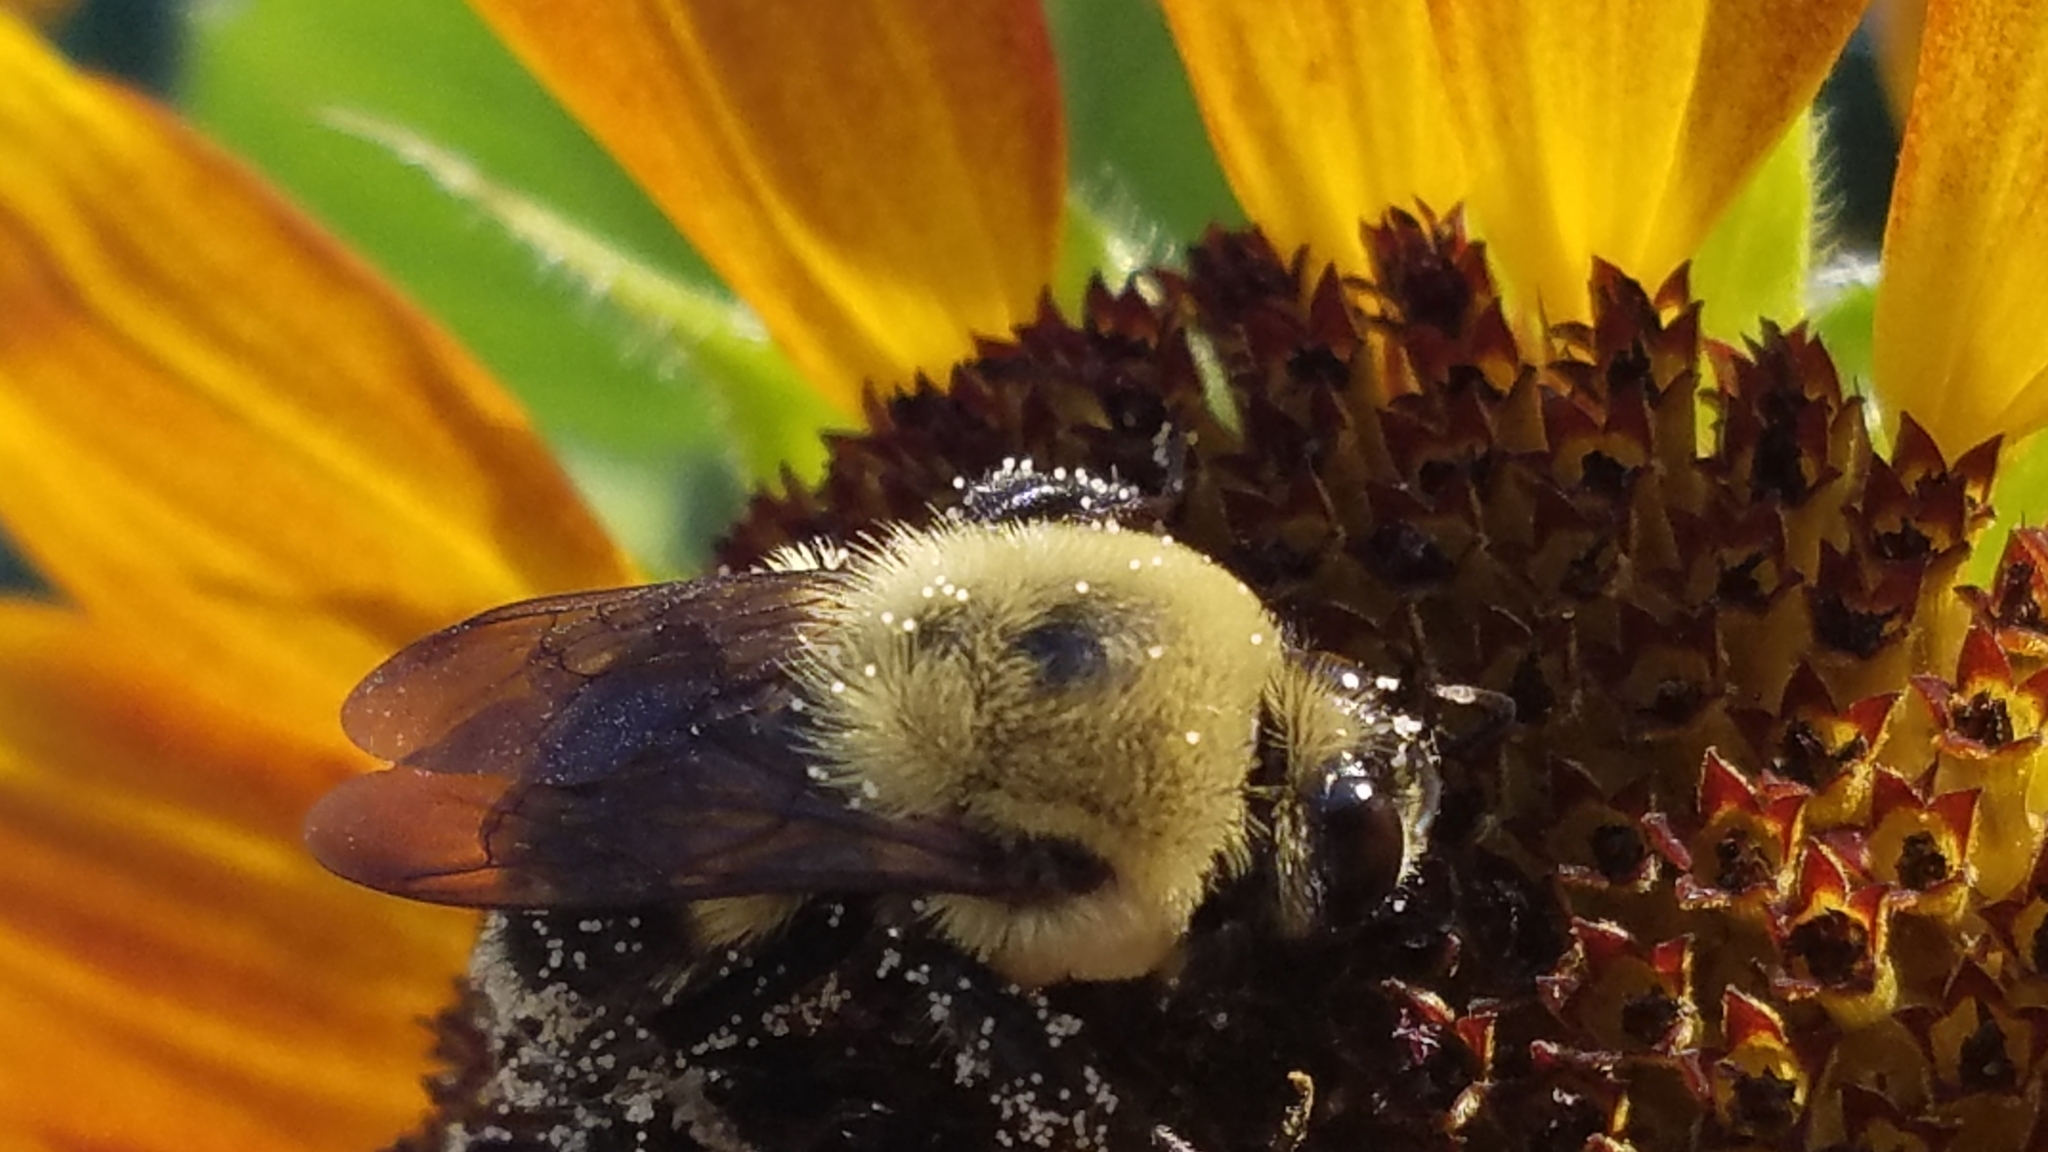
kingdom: Animalia
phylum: Arthropoda
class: Insecta
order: Hymenoptera
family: Apidae
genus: Bombus
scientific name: Bombus griseocollis
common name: Brown-belted bumble bee
